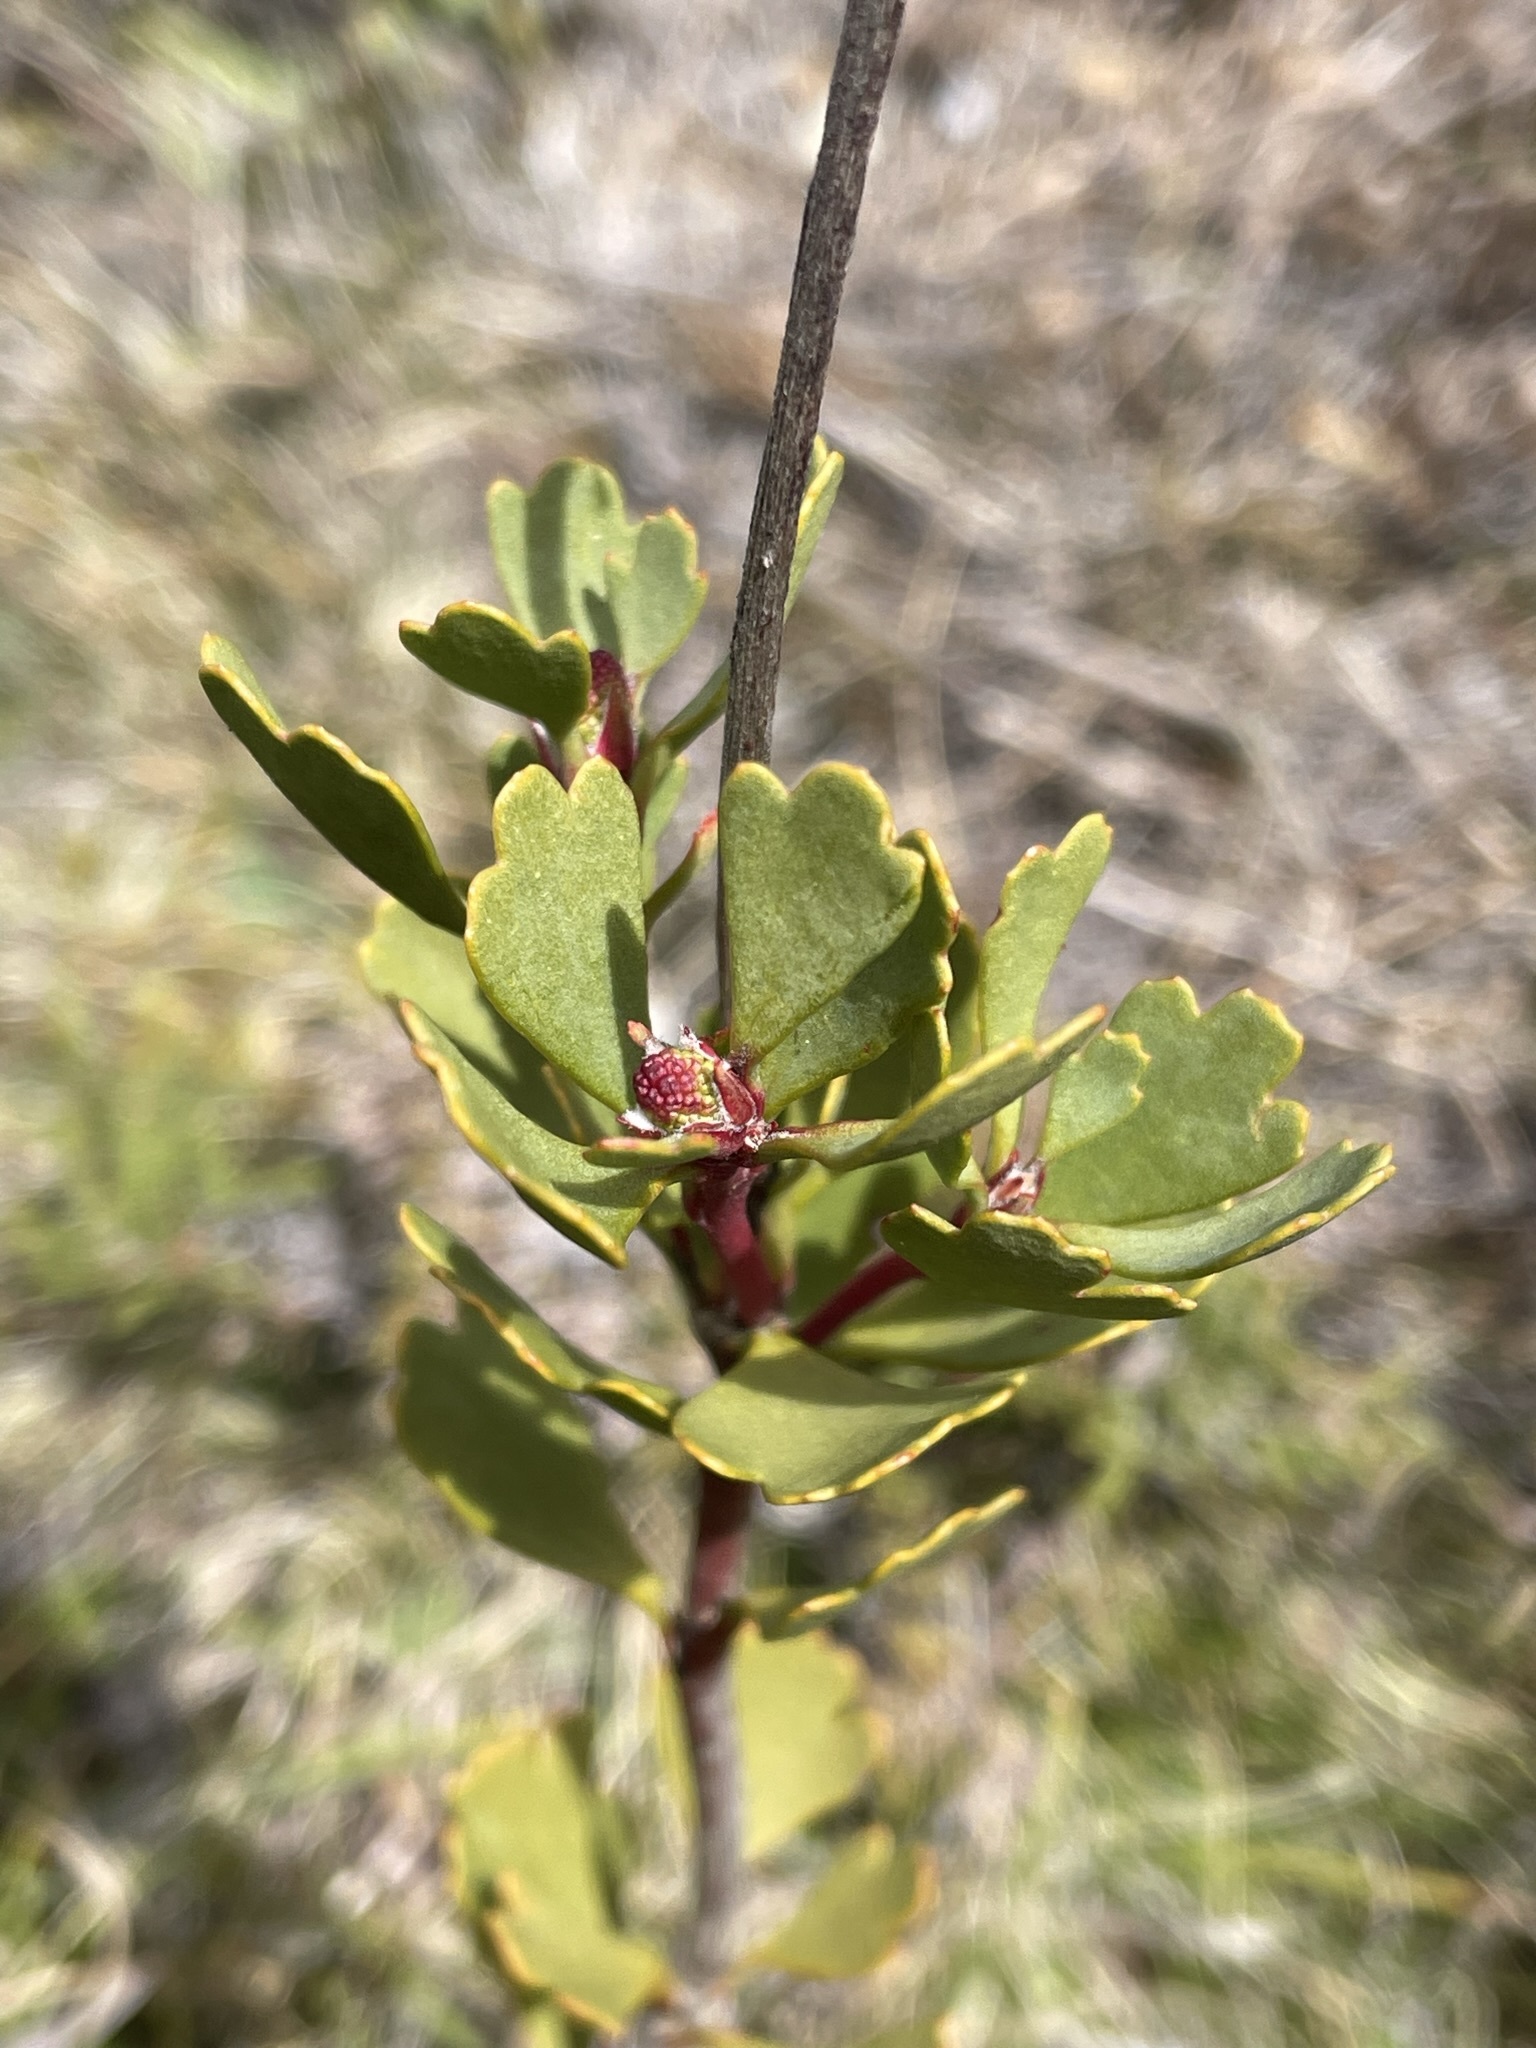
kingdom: Plantae
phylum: Tracheophyta
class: Magnoliopsida
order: Proteales
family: Proteaceae
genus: Bellendena
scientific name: Bellendena montana
